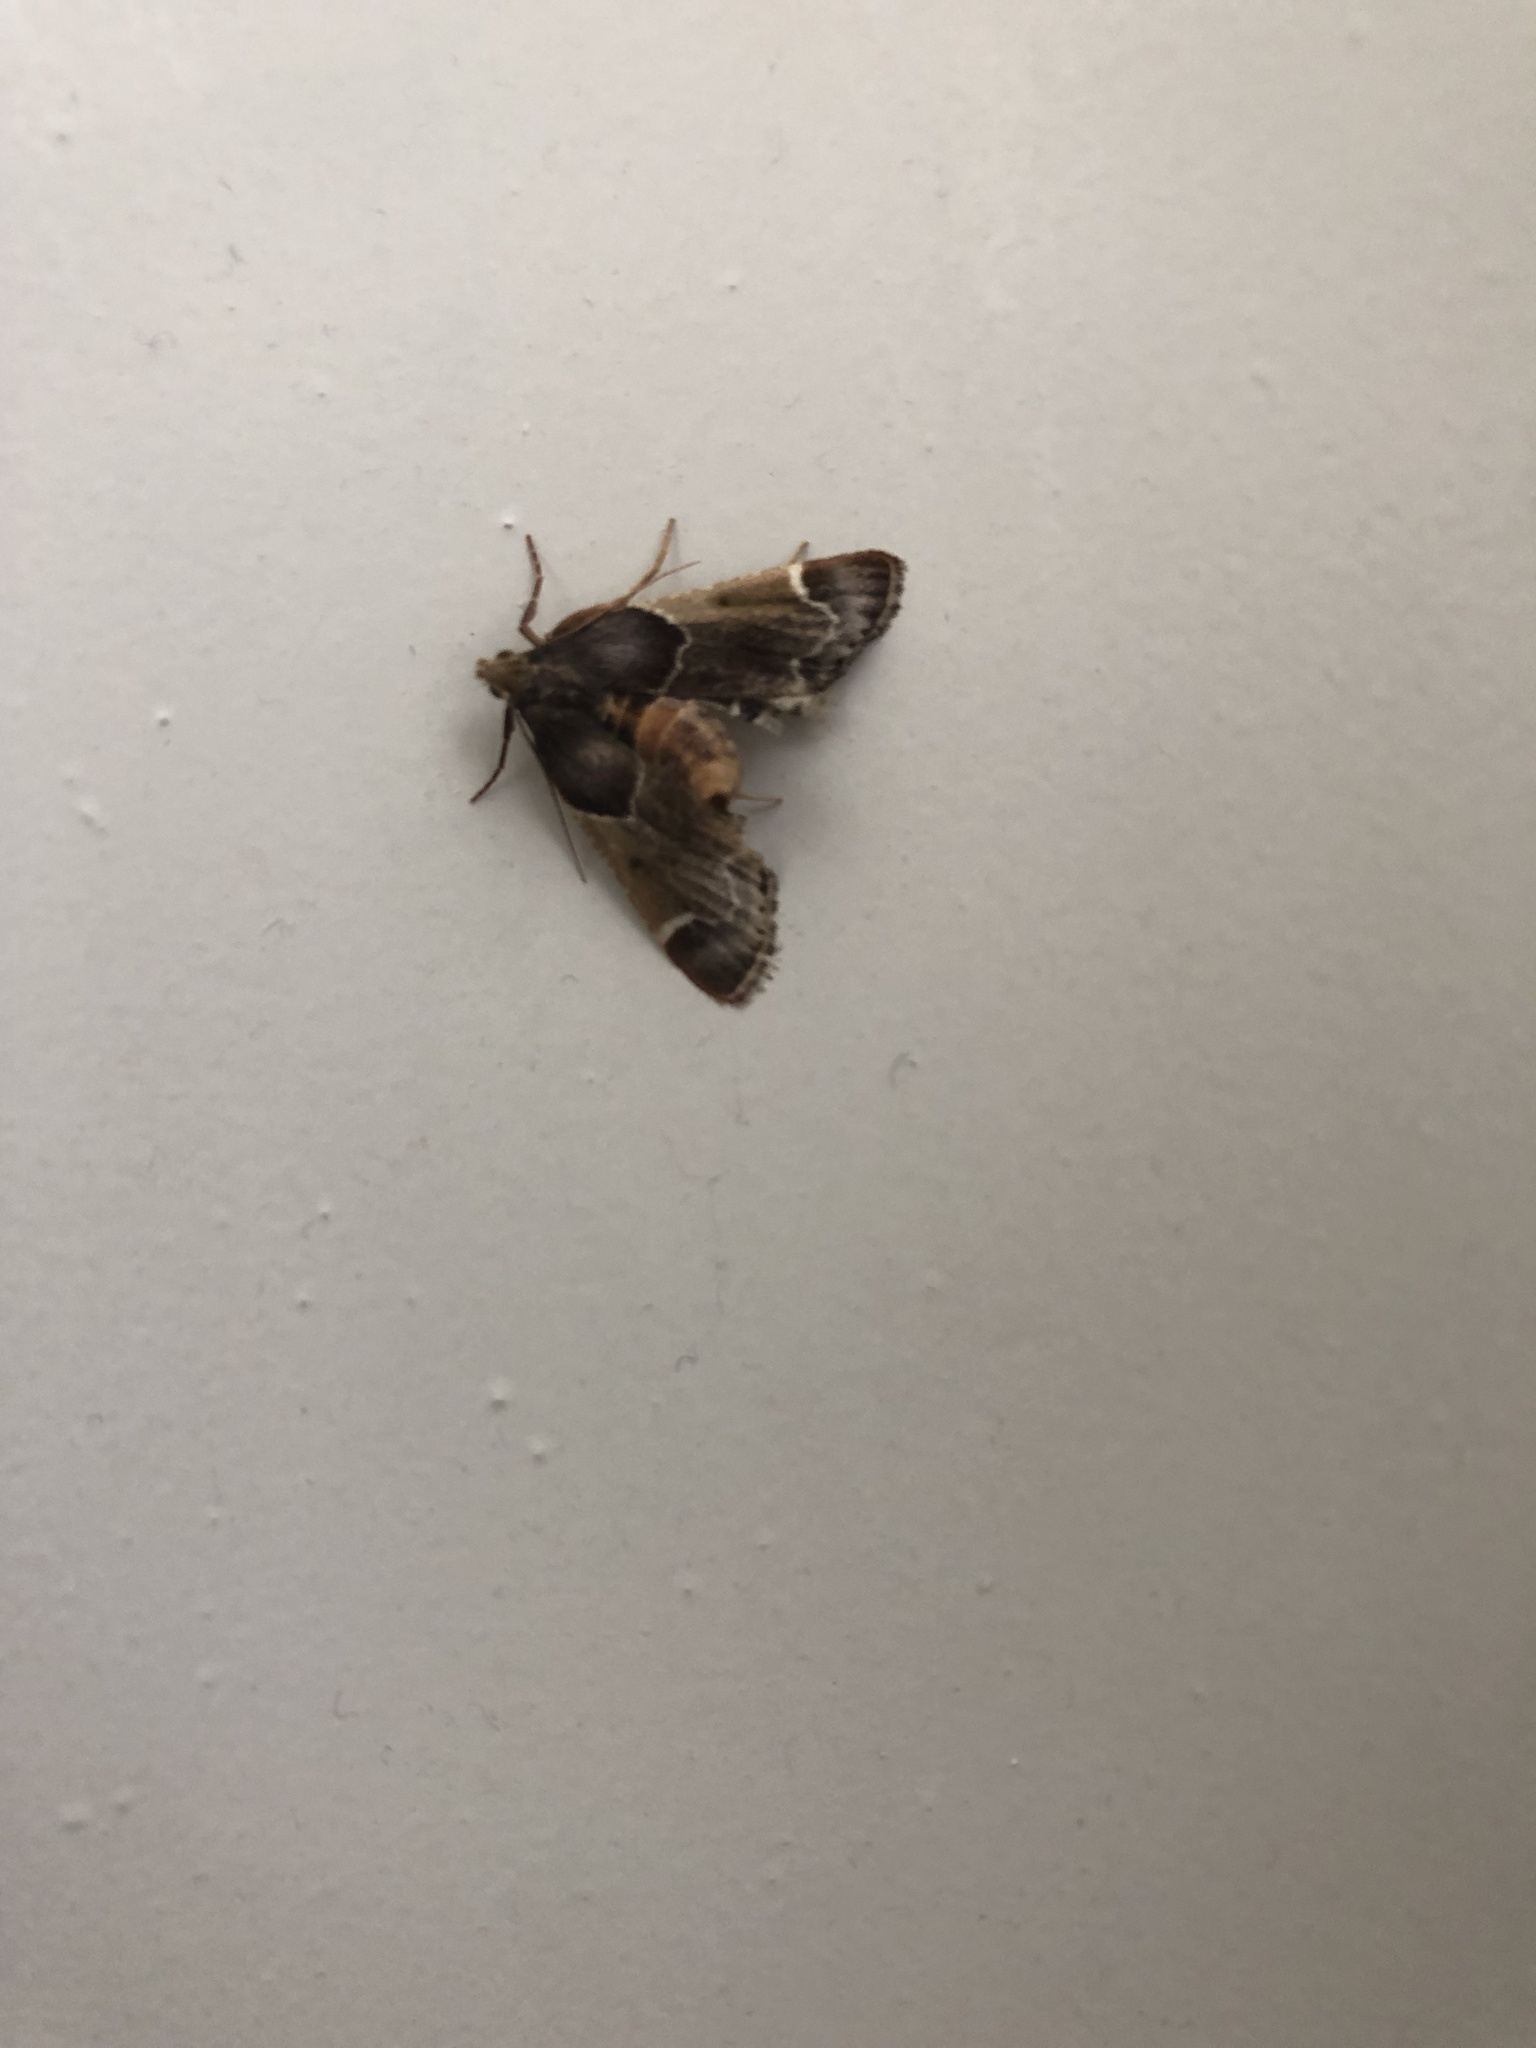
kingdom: Animalia
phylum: Arthropoda
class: Insecta
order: Lepidoptera
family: Pyralidae
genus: Pyralis
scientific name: Pyralis farinalis
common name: Meal moth
